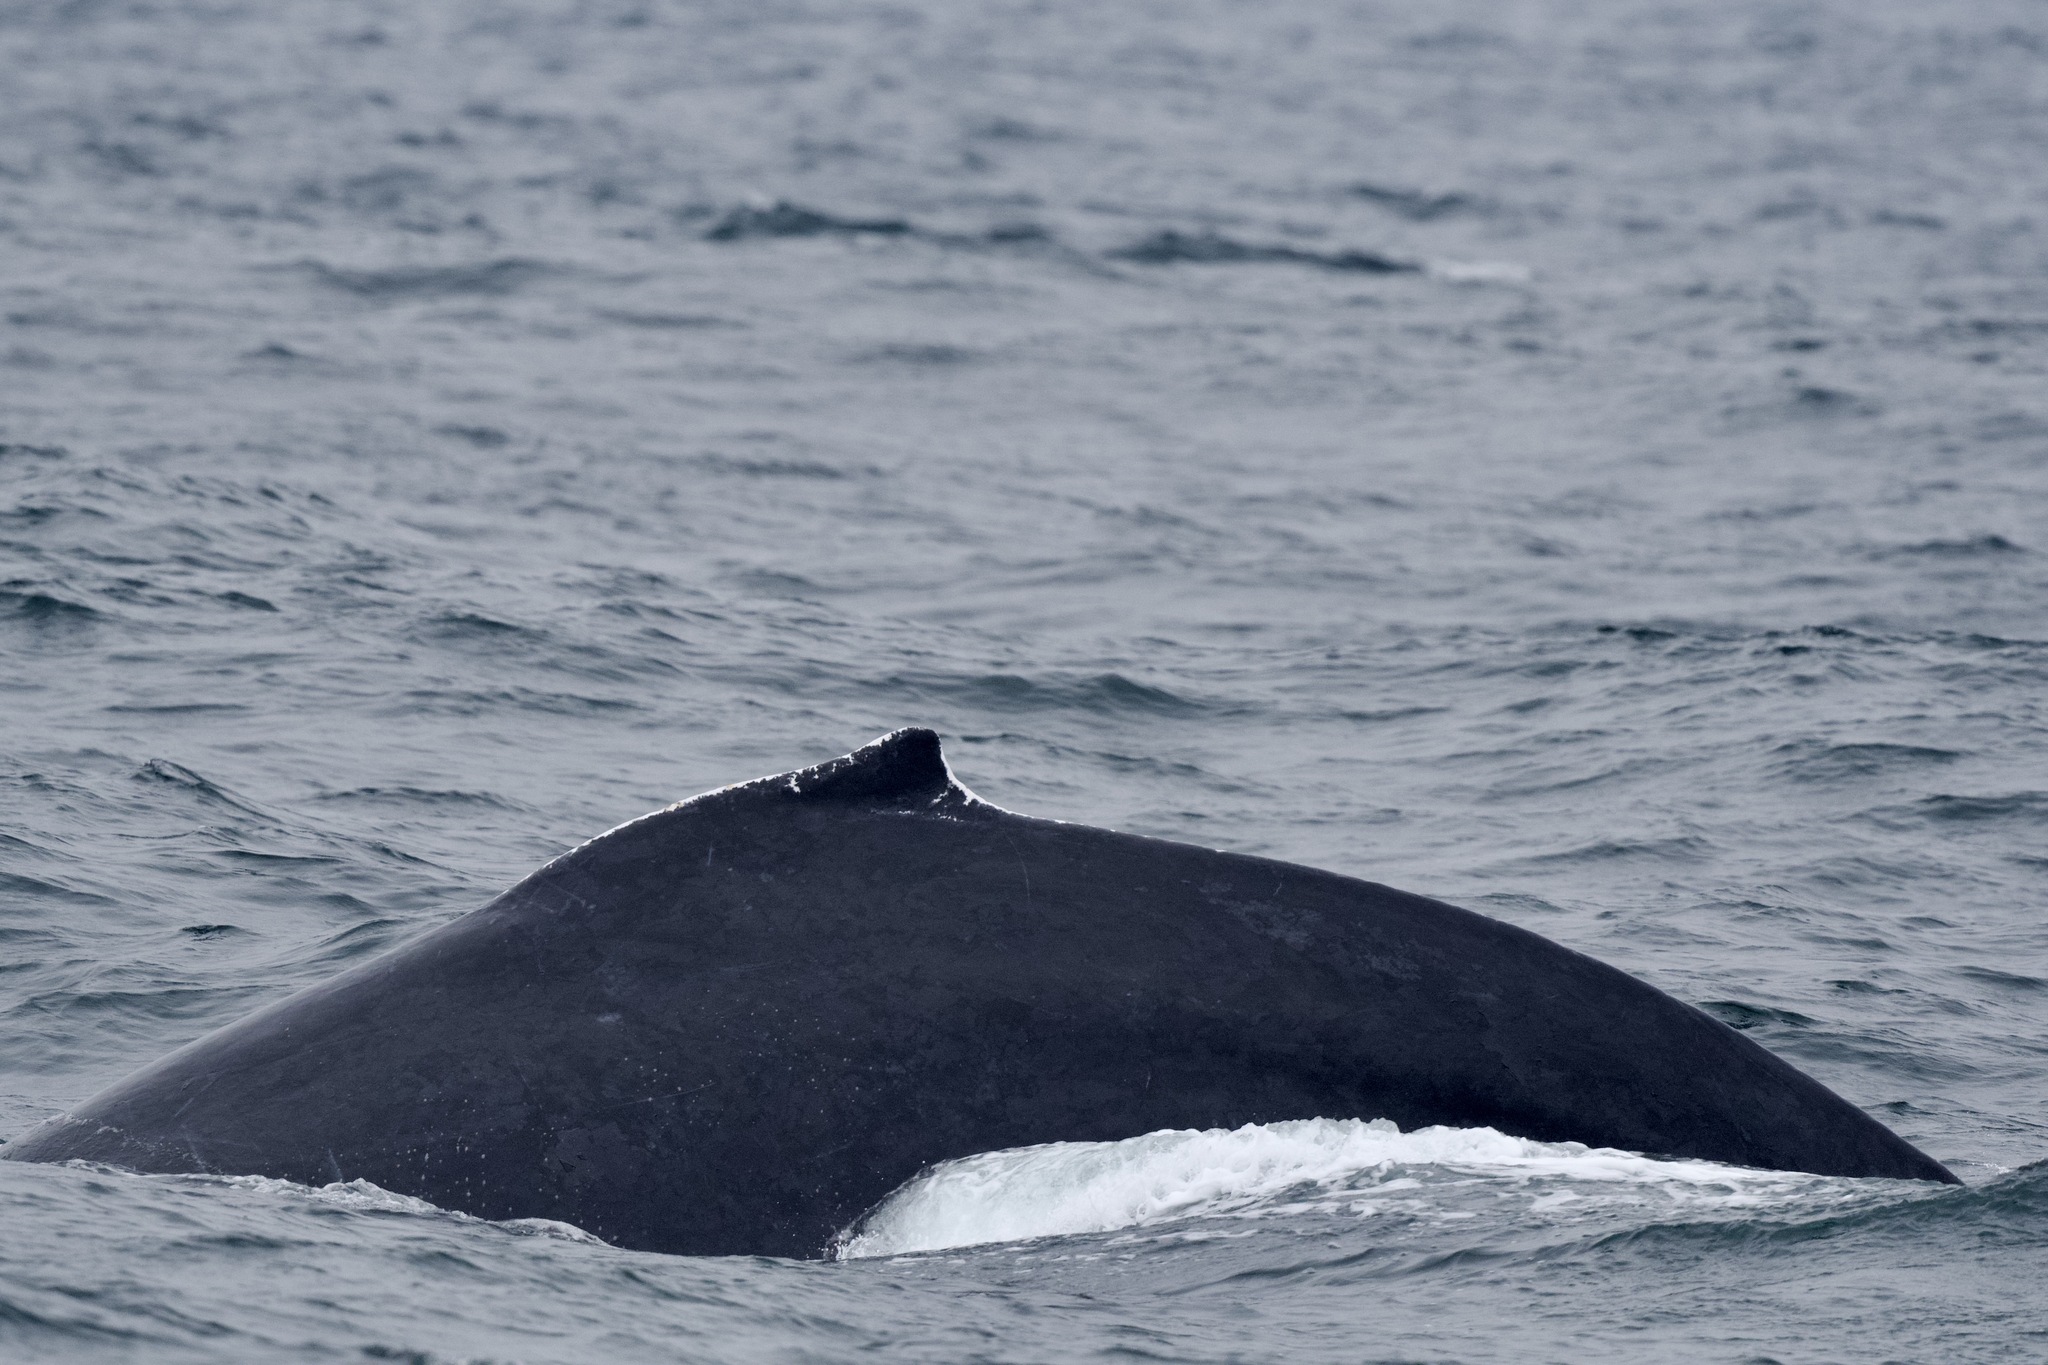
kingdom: Animalia
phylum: Chordata
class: Mammalia
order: Cetacea
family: Balaenopteridae
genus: Megaptera
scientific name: Megaptera novaeangliae
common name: Humpback whale
